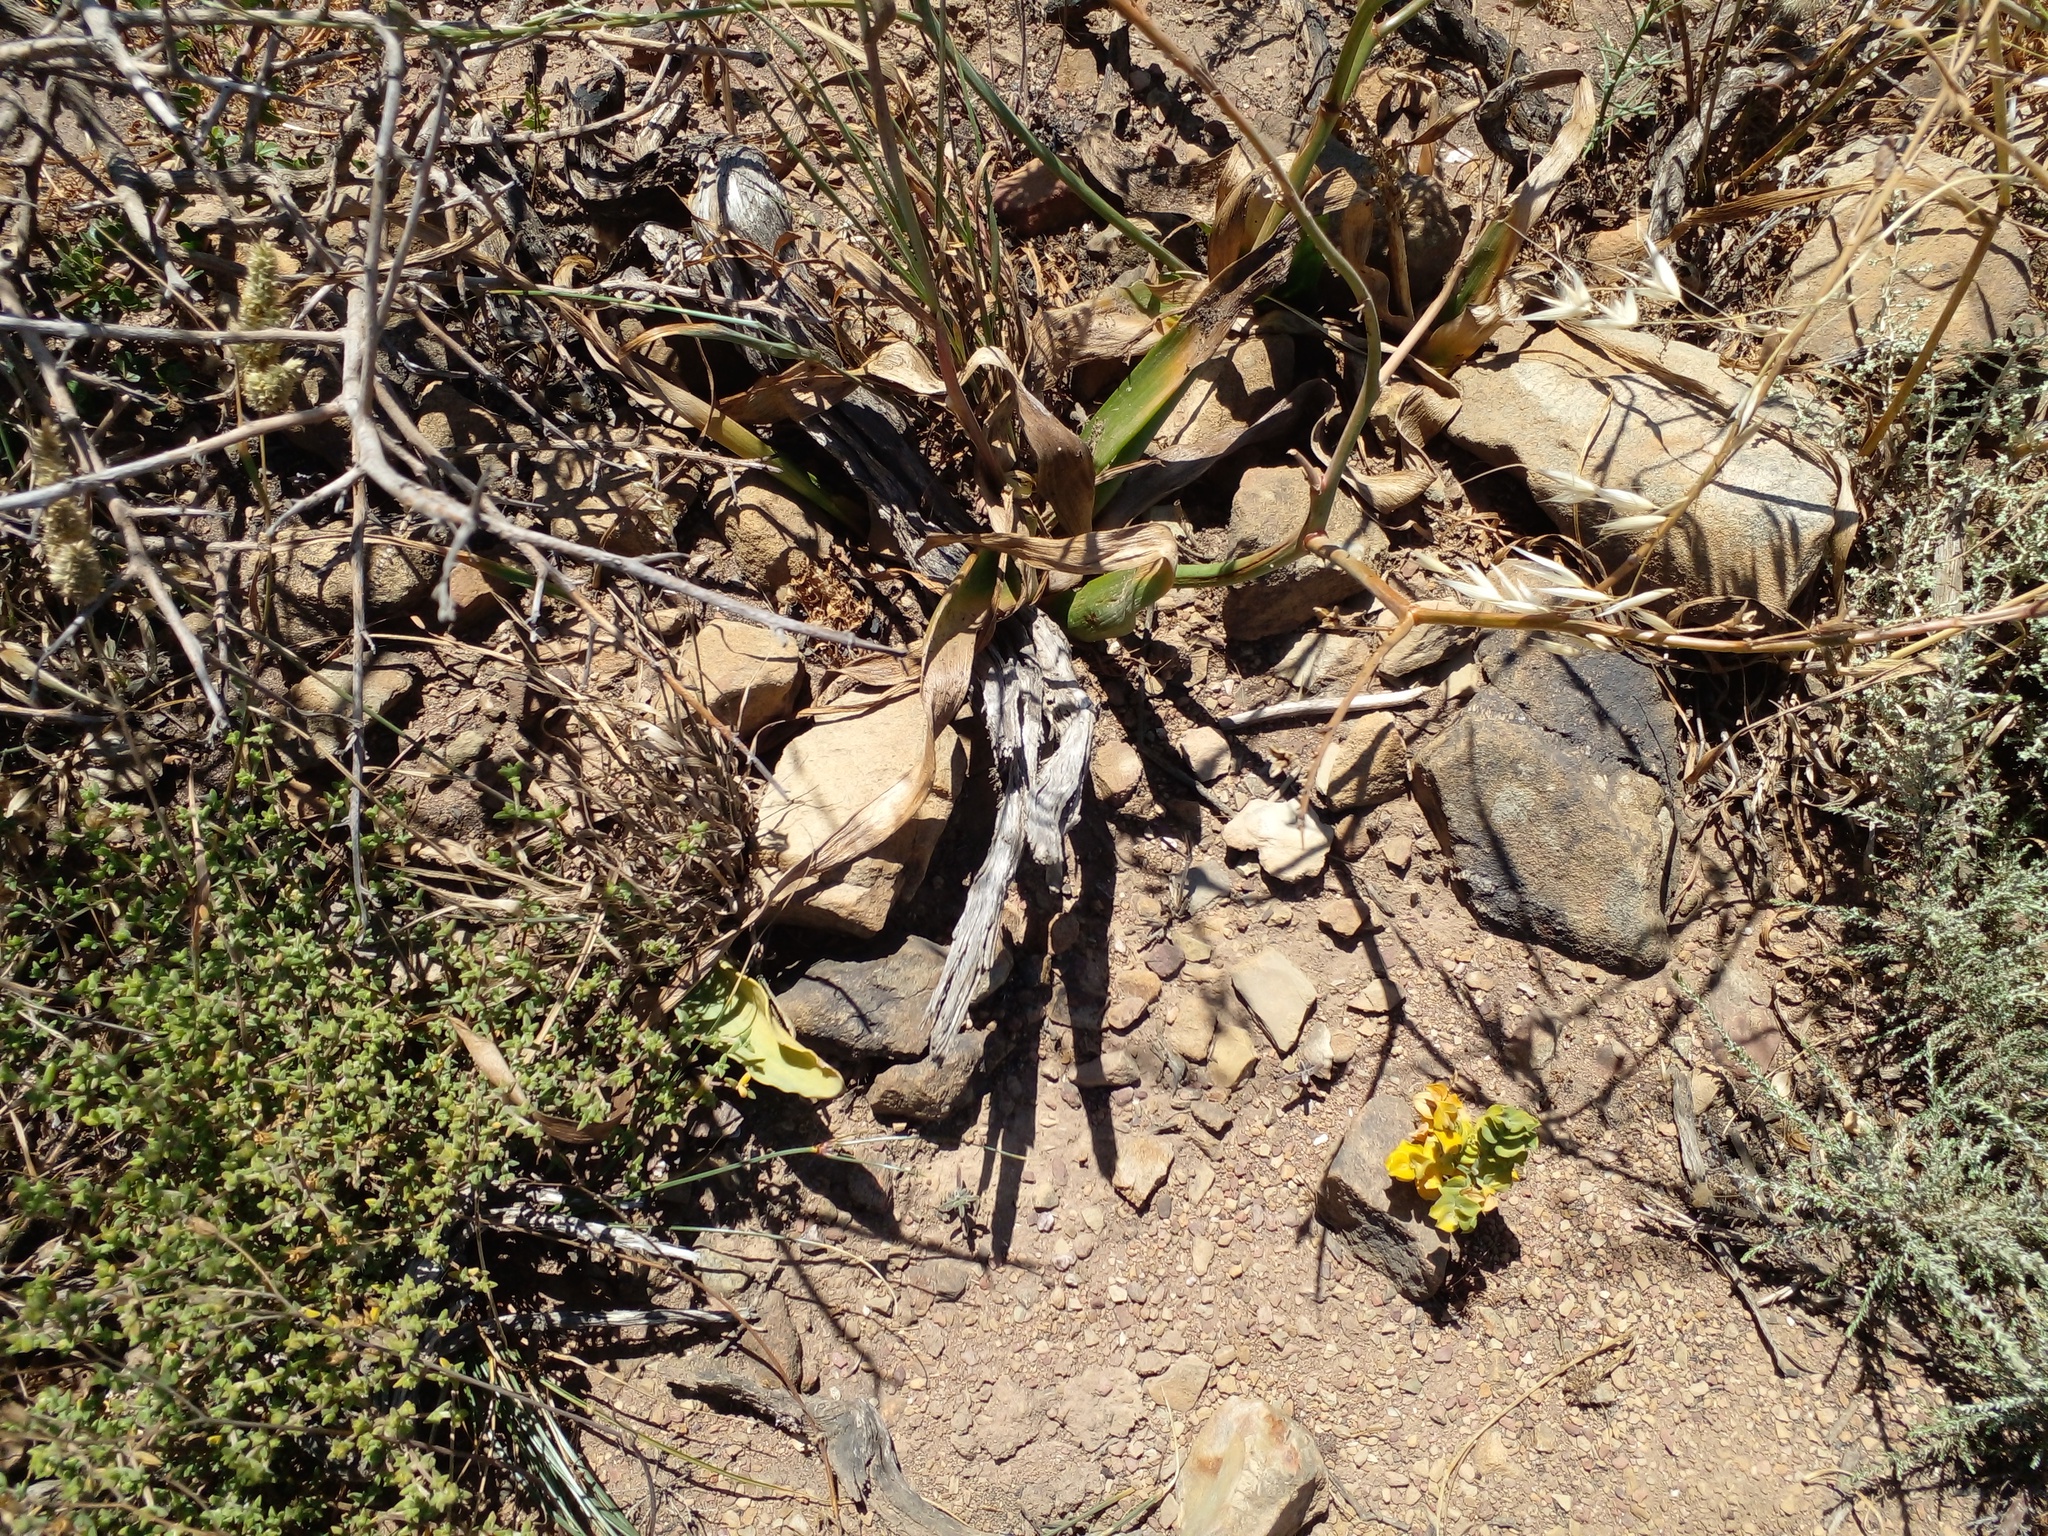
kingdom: Plantae
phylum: Tracheophyta
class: Liliopsida
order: Asparagales
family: Asphodelaceae
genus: Trachyandra
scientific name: Trachyandra muricata
